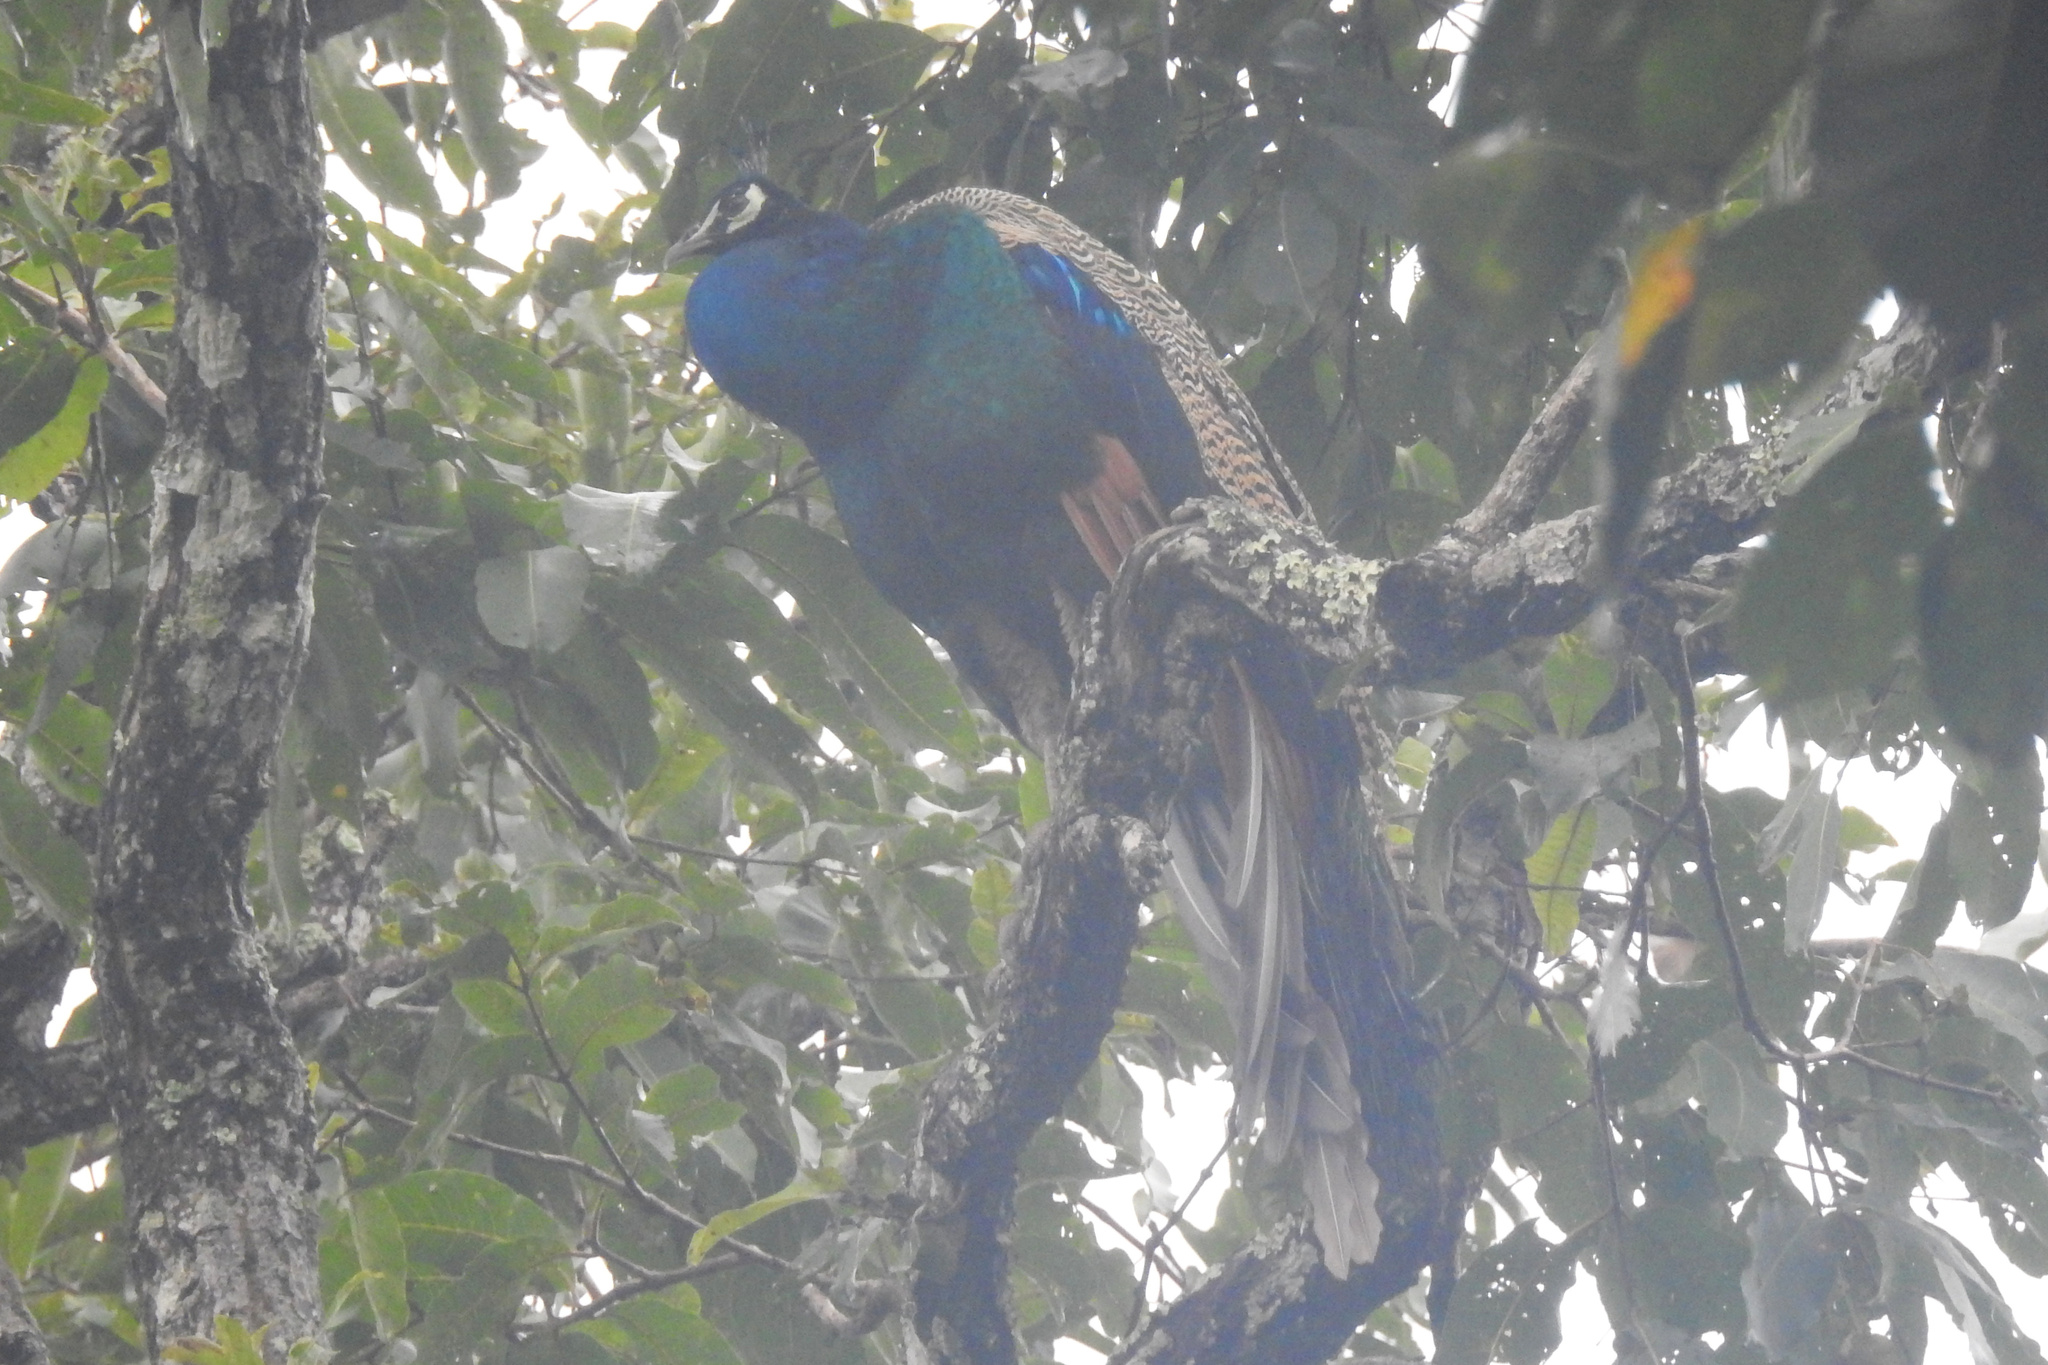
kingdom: Animalia
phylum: Chordata
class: Aves
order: Galliformes
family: Phasianidae
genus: Pavo
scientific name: Pavo cristatus
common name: Indian peafowl
